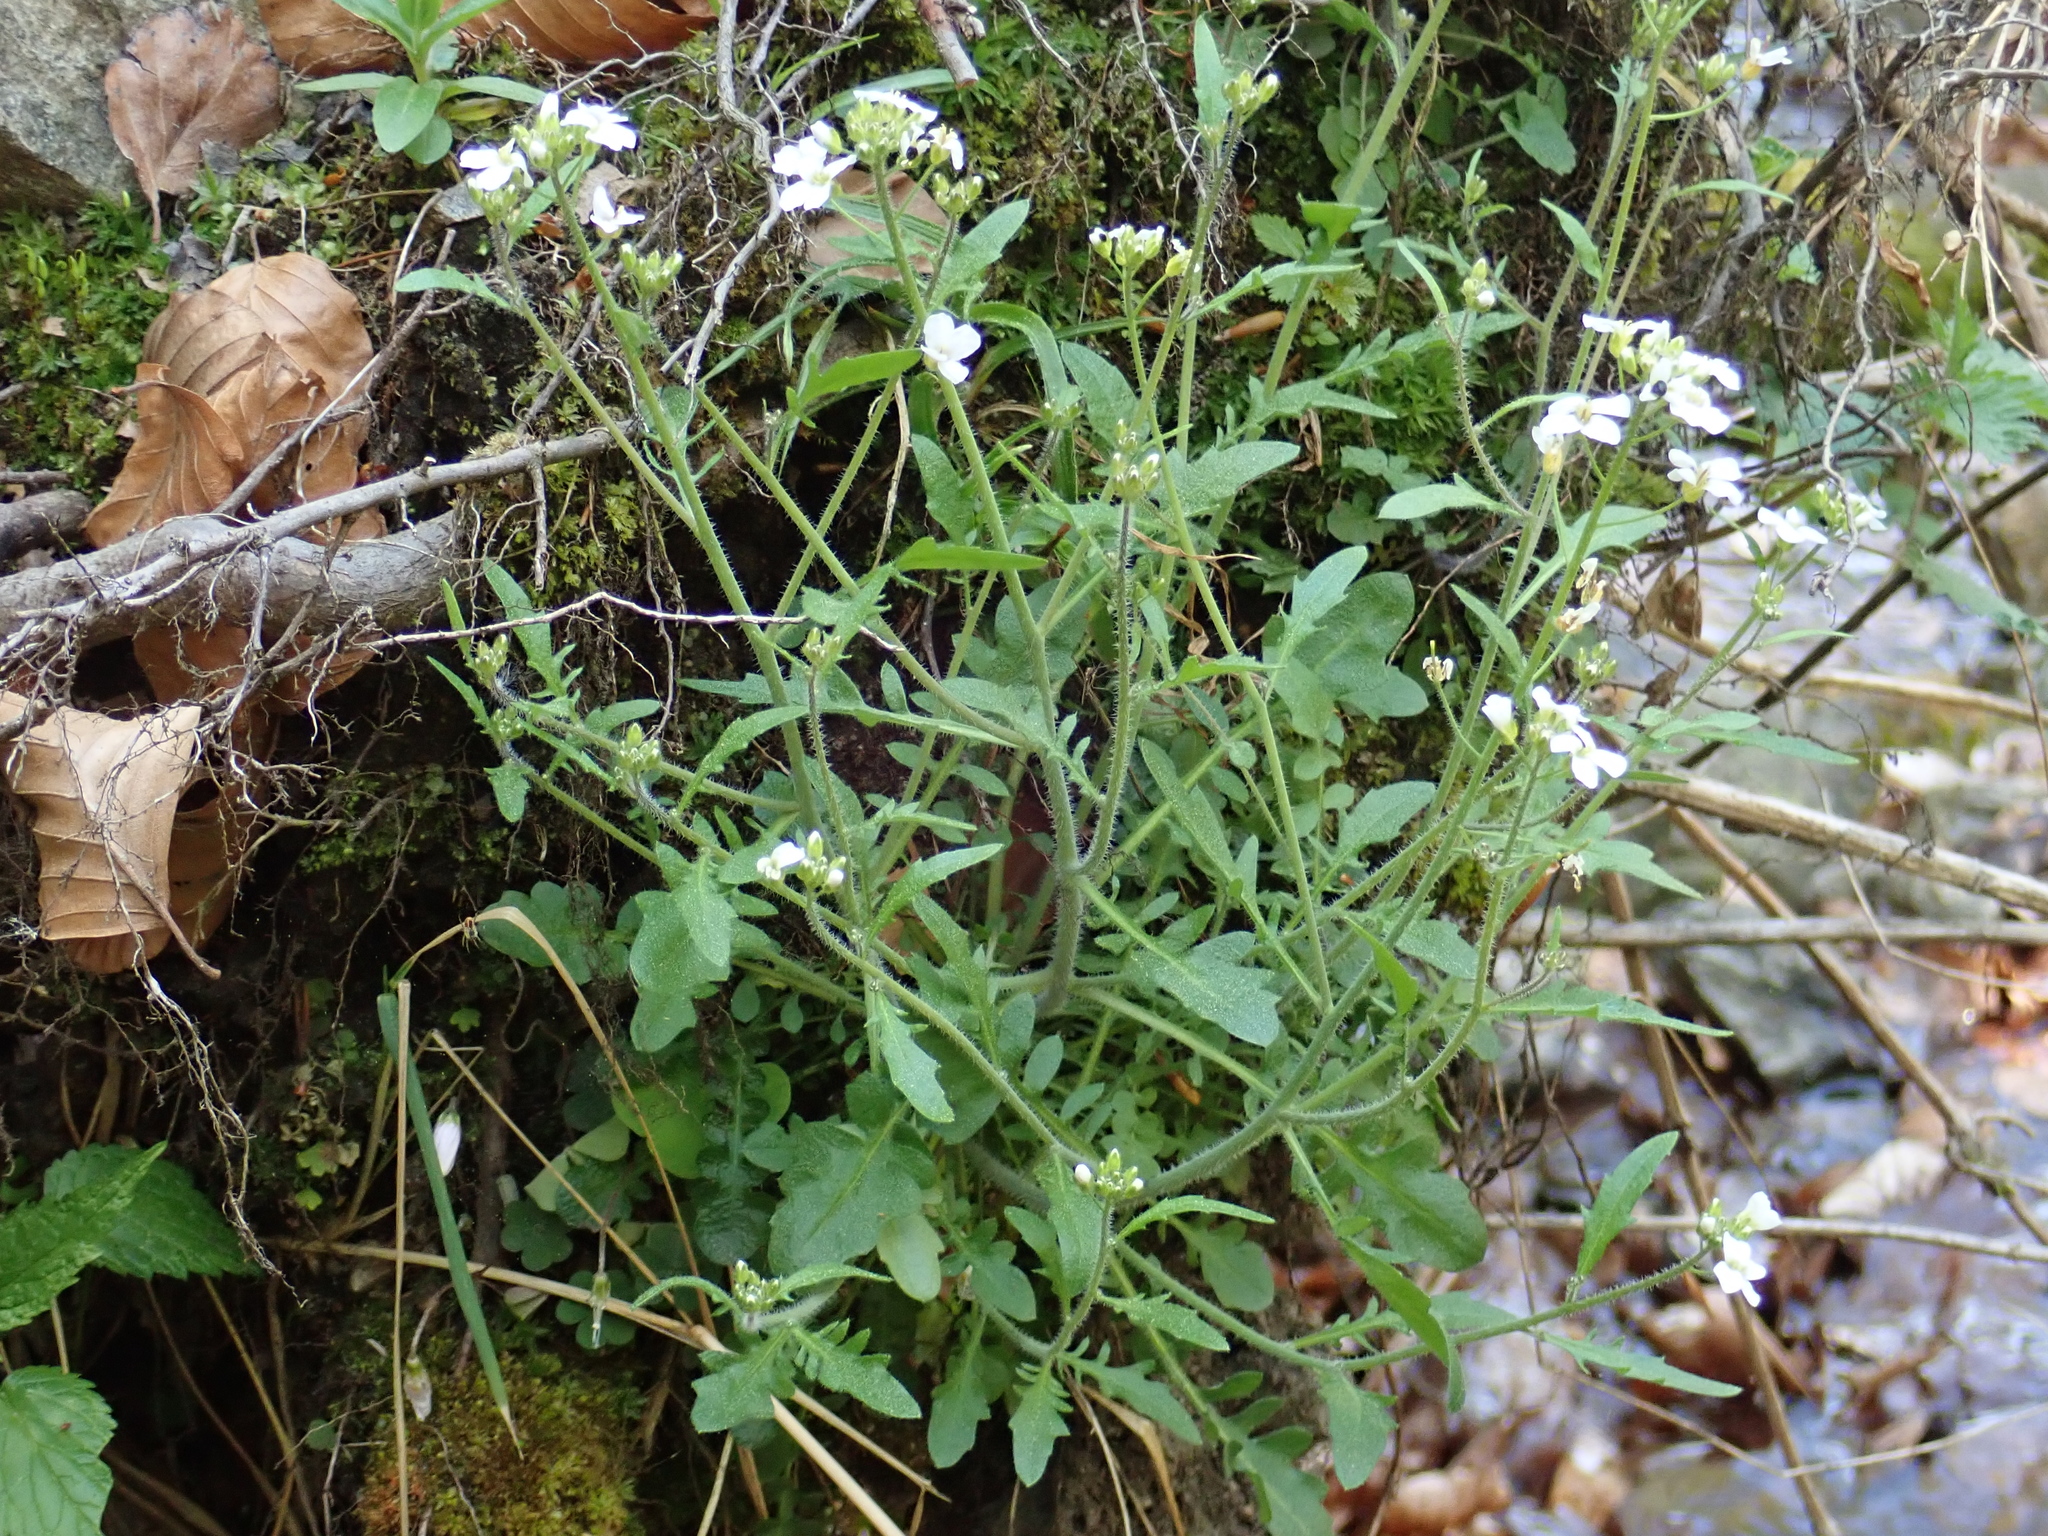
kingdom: Plantae
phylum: Tracheophyta
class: Magnoliopsida
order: Brassicales
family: Brassicaceae
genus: Arabidopsis
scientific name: Arabidopsis arenosa
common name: Sand rock-cress
